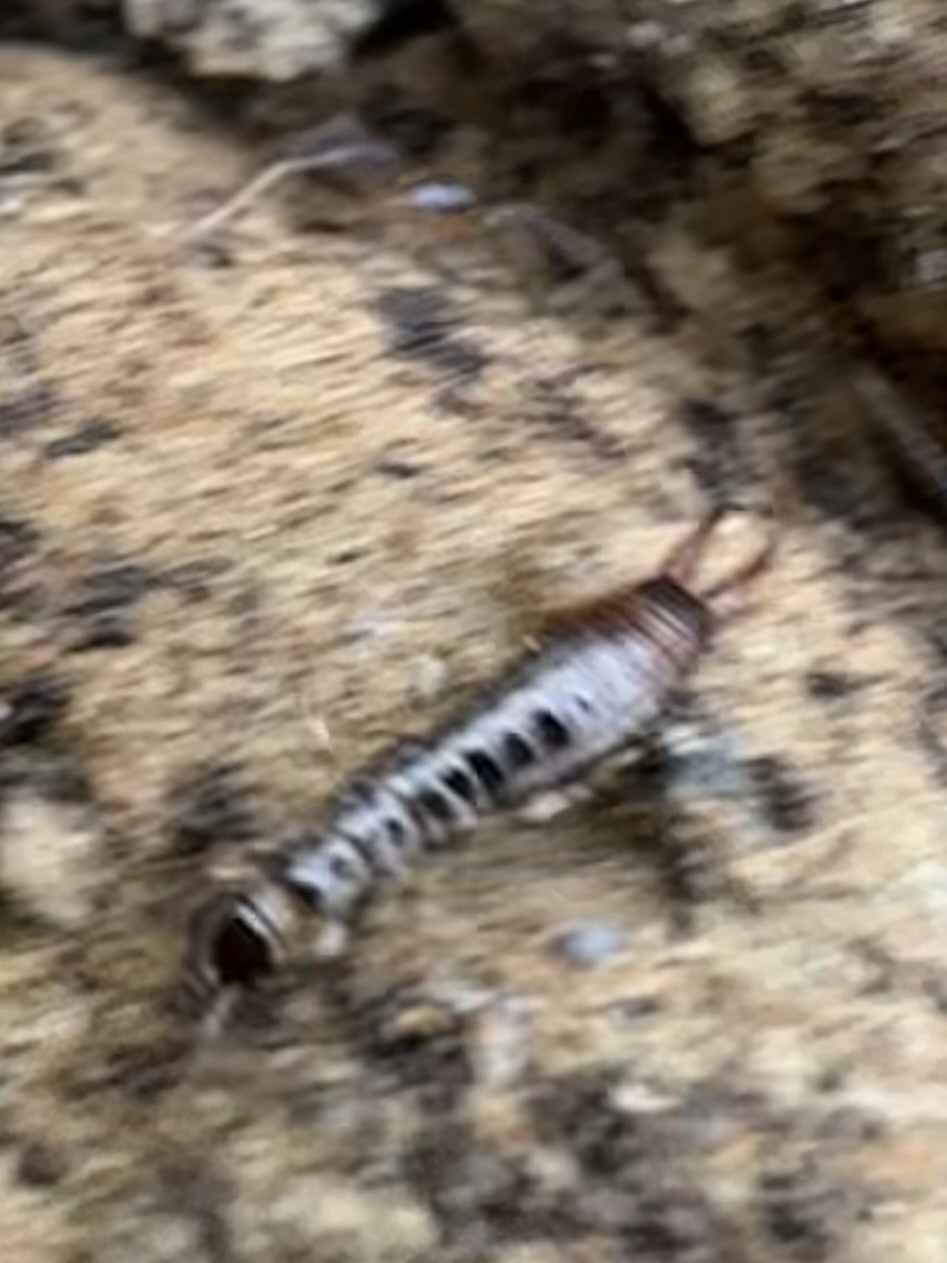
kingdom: Animalia
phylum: Arthropoda
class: Insecta
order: Dermaptera
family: Anisolabididae
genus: Euborellia
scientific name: Euborellia annulipes
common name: Ringlegged earwig
